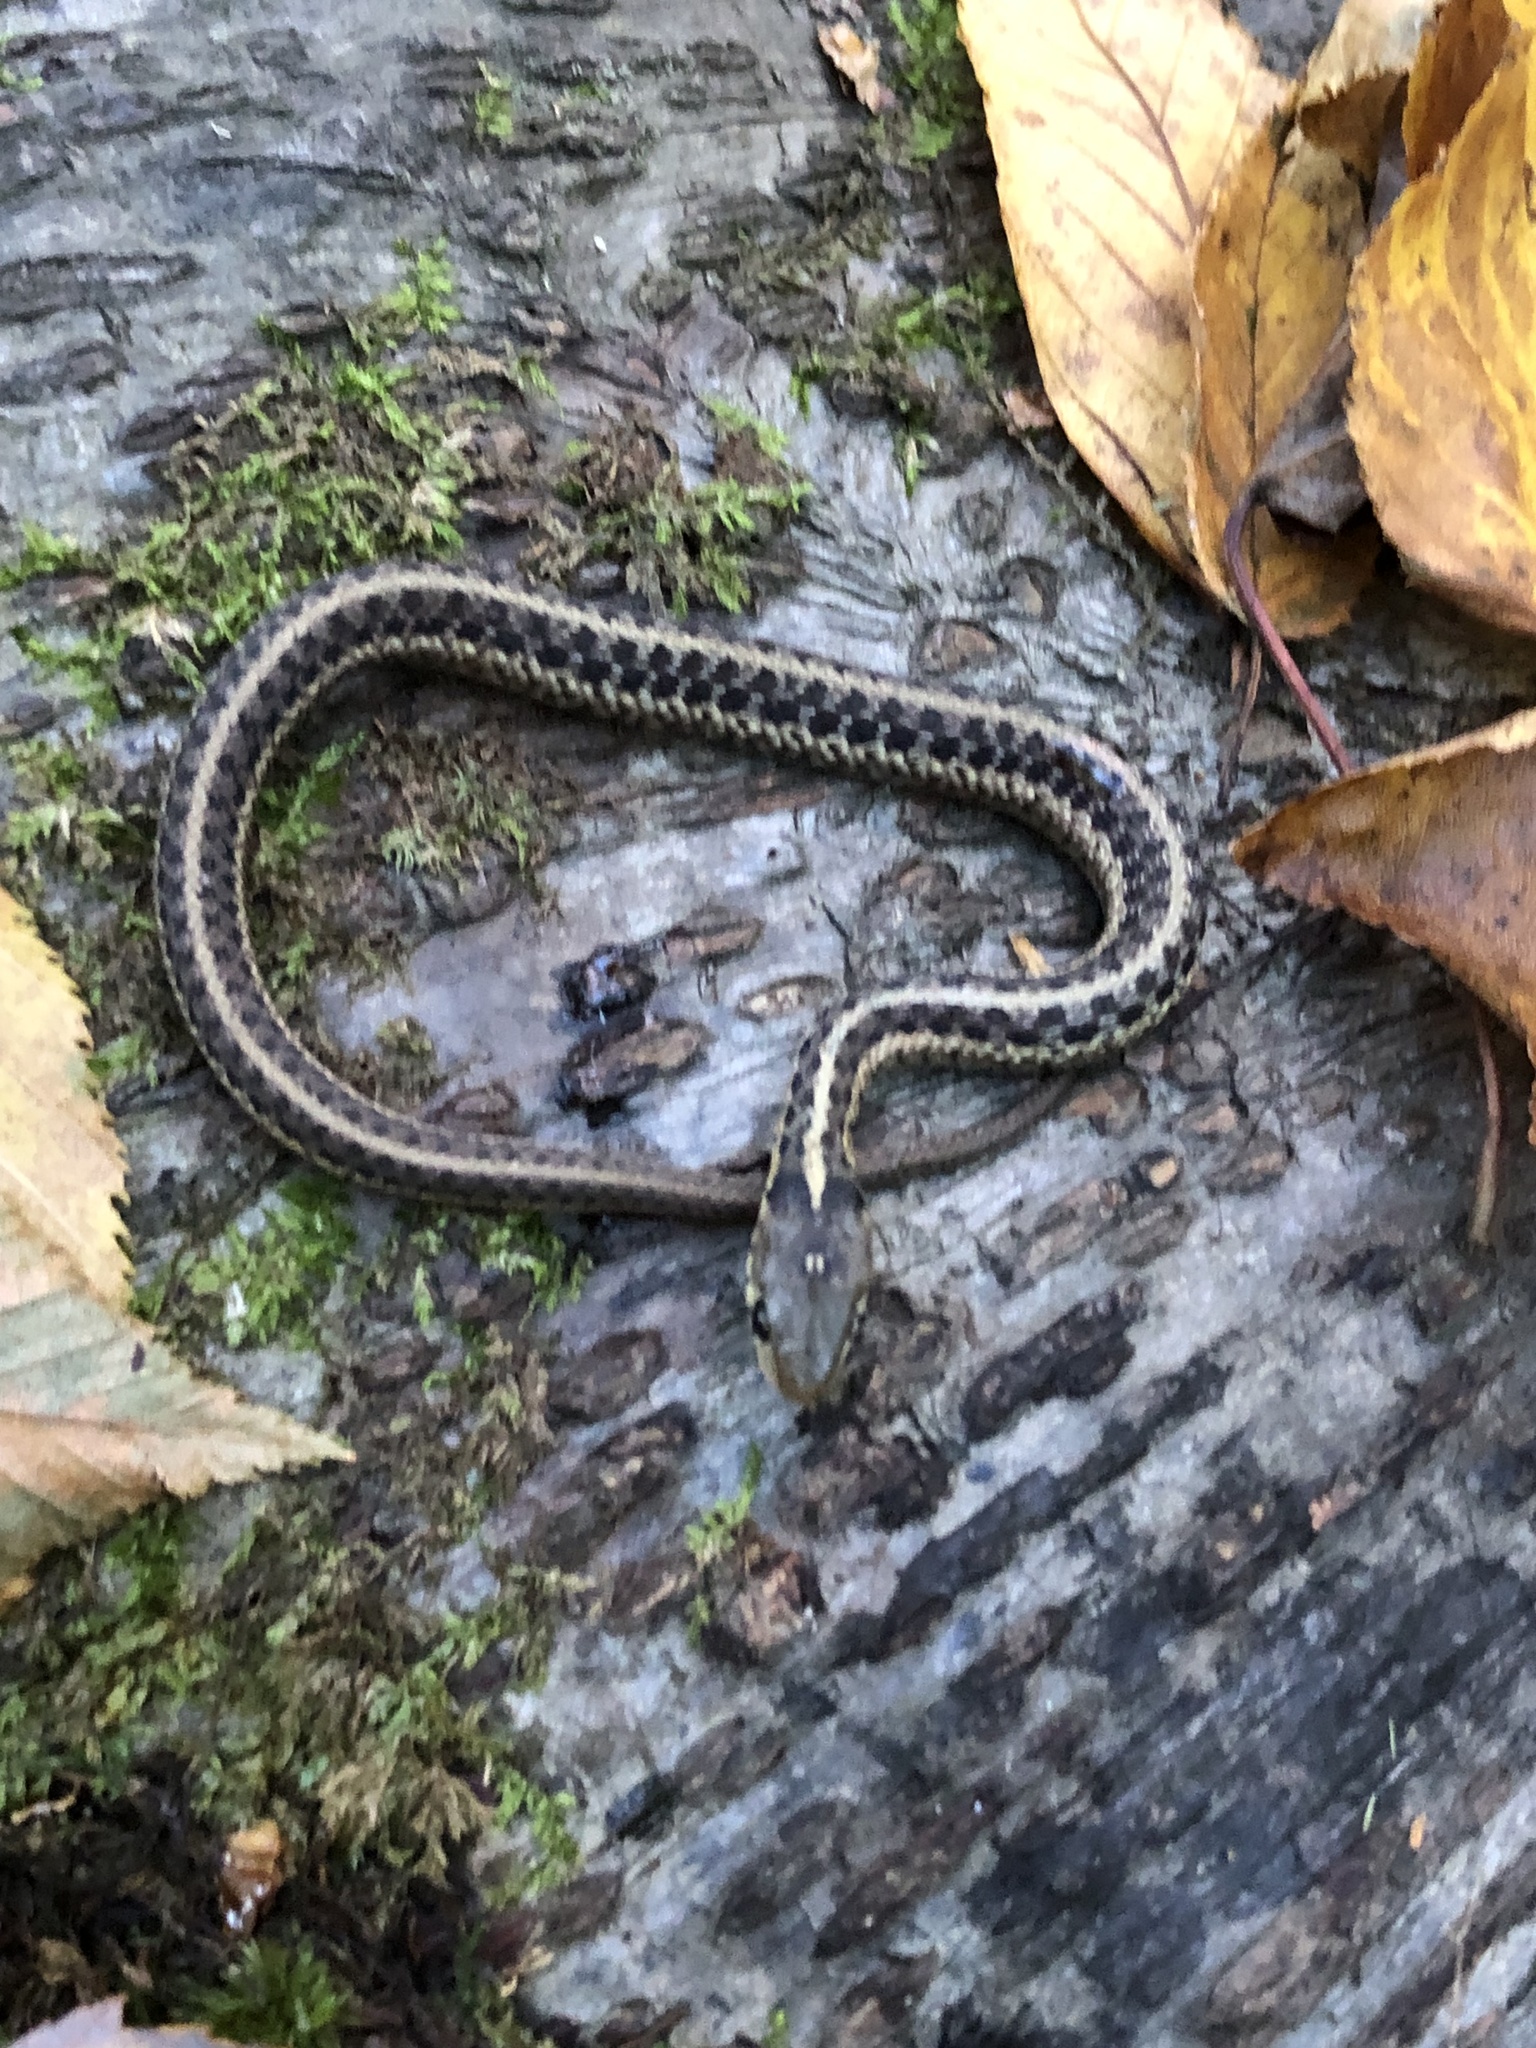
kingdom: Animalia
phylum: Chordata
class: Squamata
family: Colubridae
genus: Thamnophis
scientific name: Thamnophis sirtalis
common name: Common garter snake
